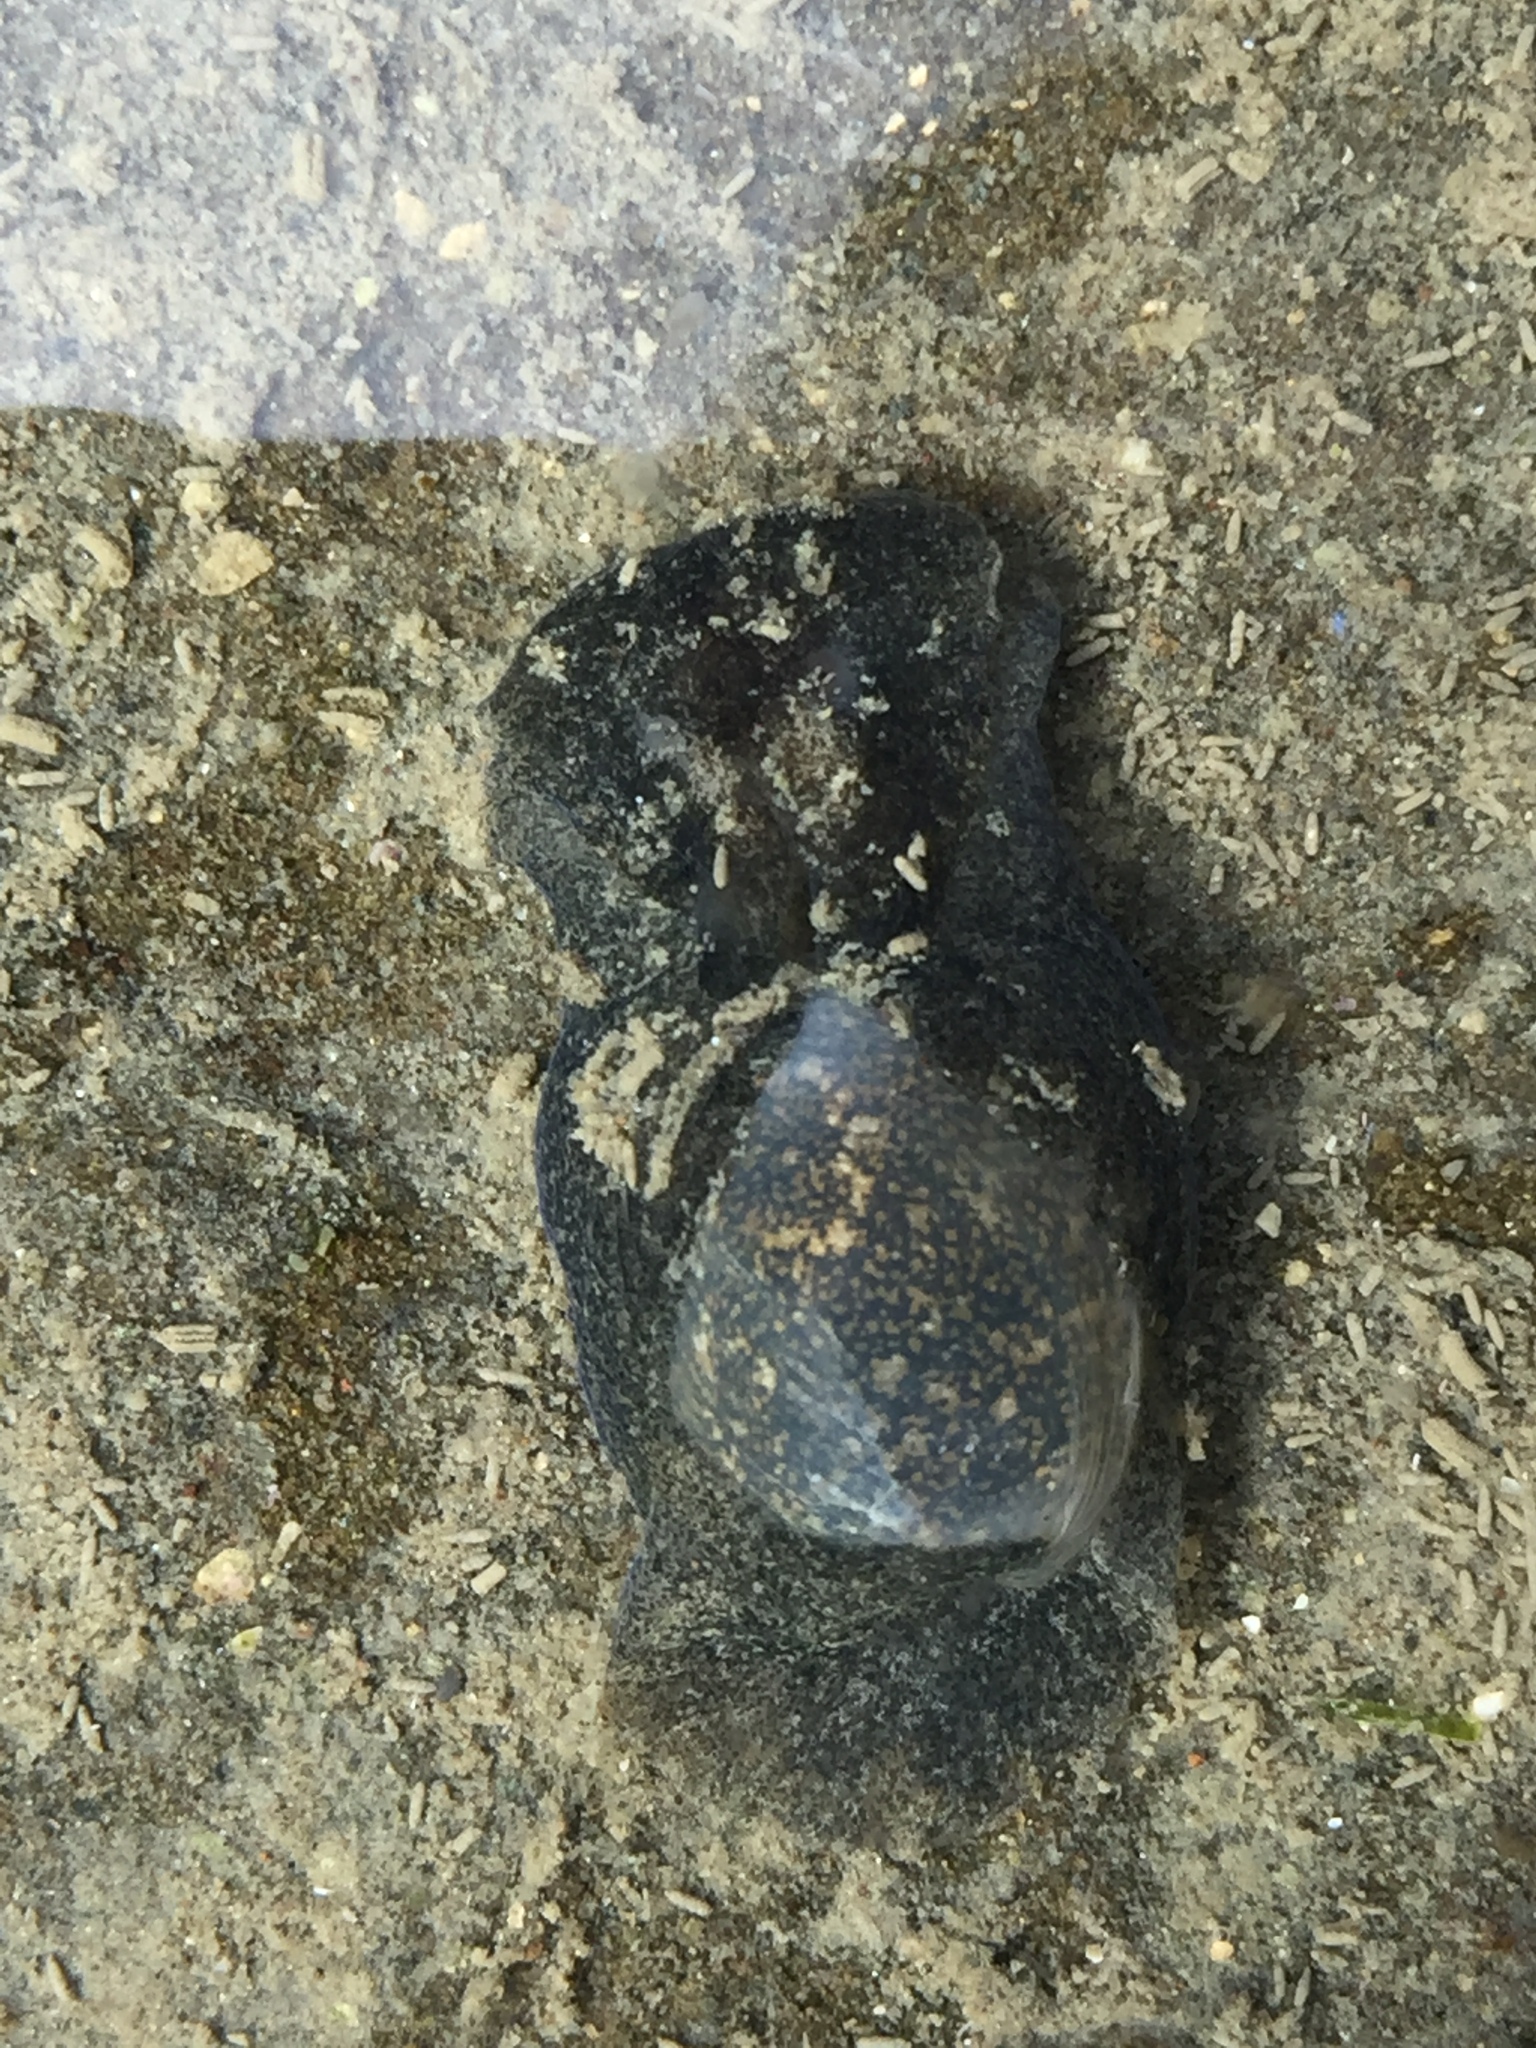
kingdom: Animalia
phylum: Mollusca
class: Gastropoda
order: Cephalaspidea
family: Haminoeidae
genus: Papawera
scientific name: Papawera zelandiae
